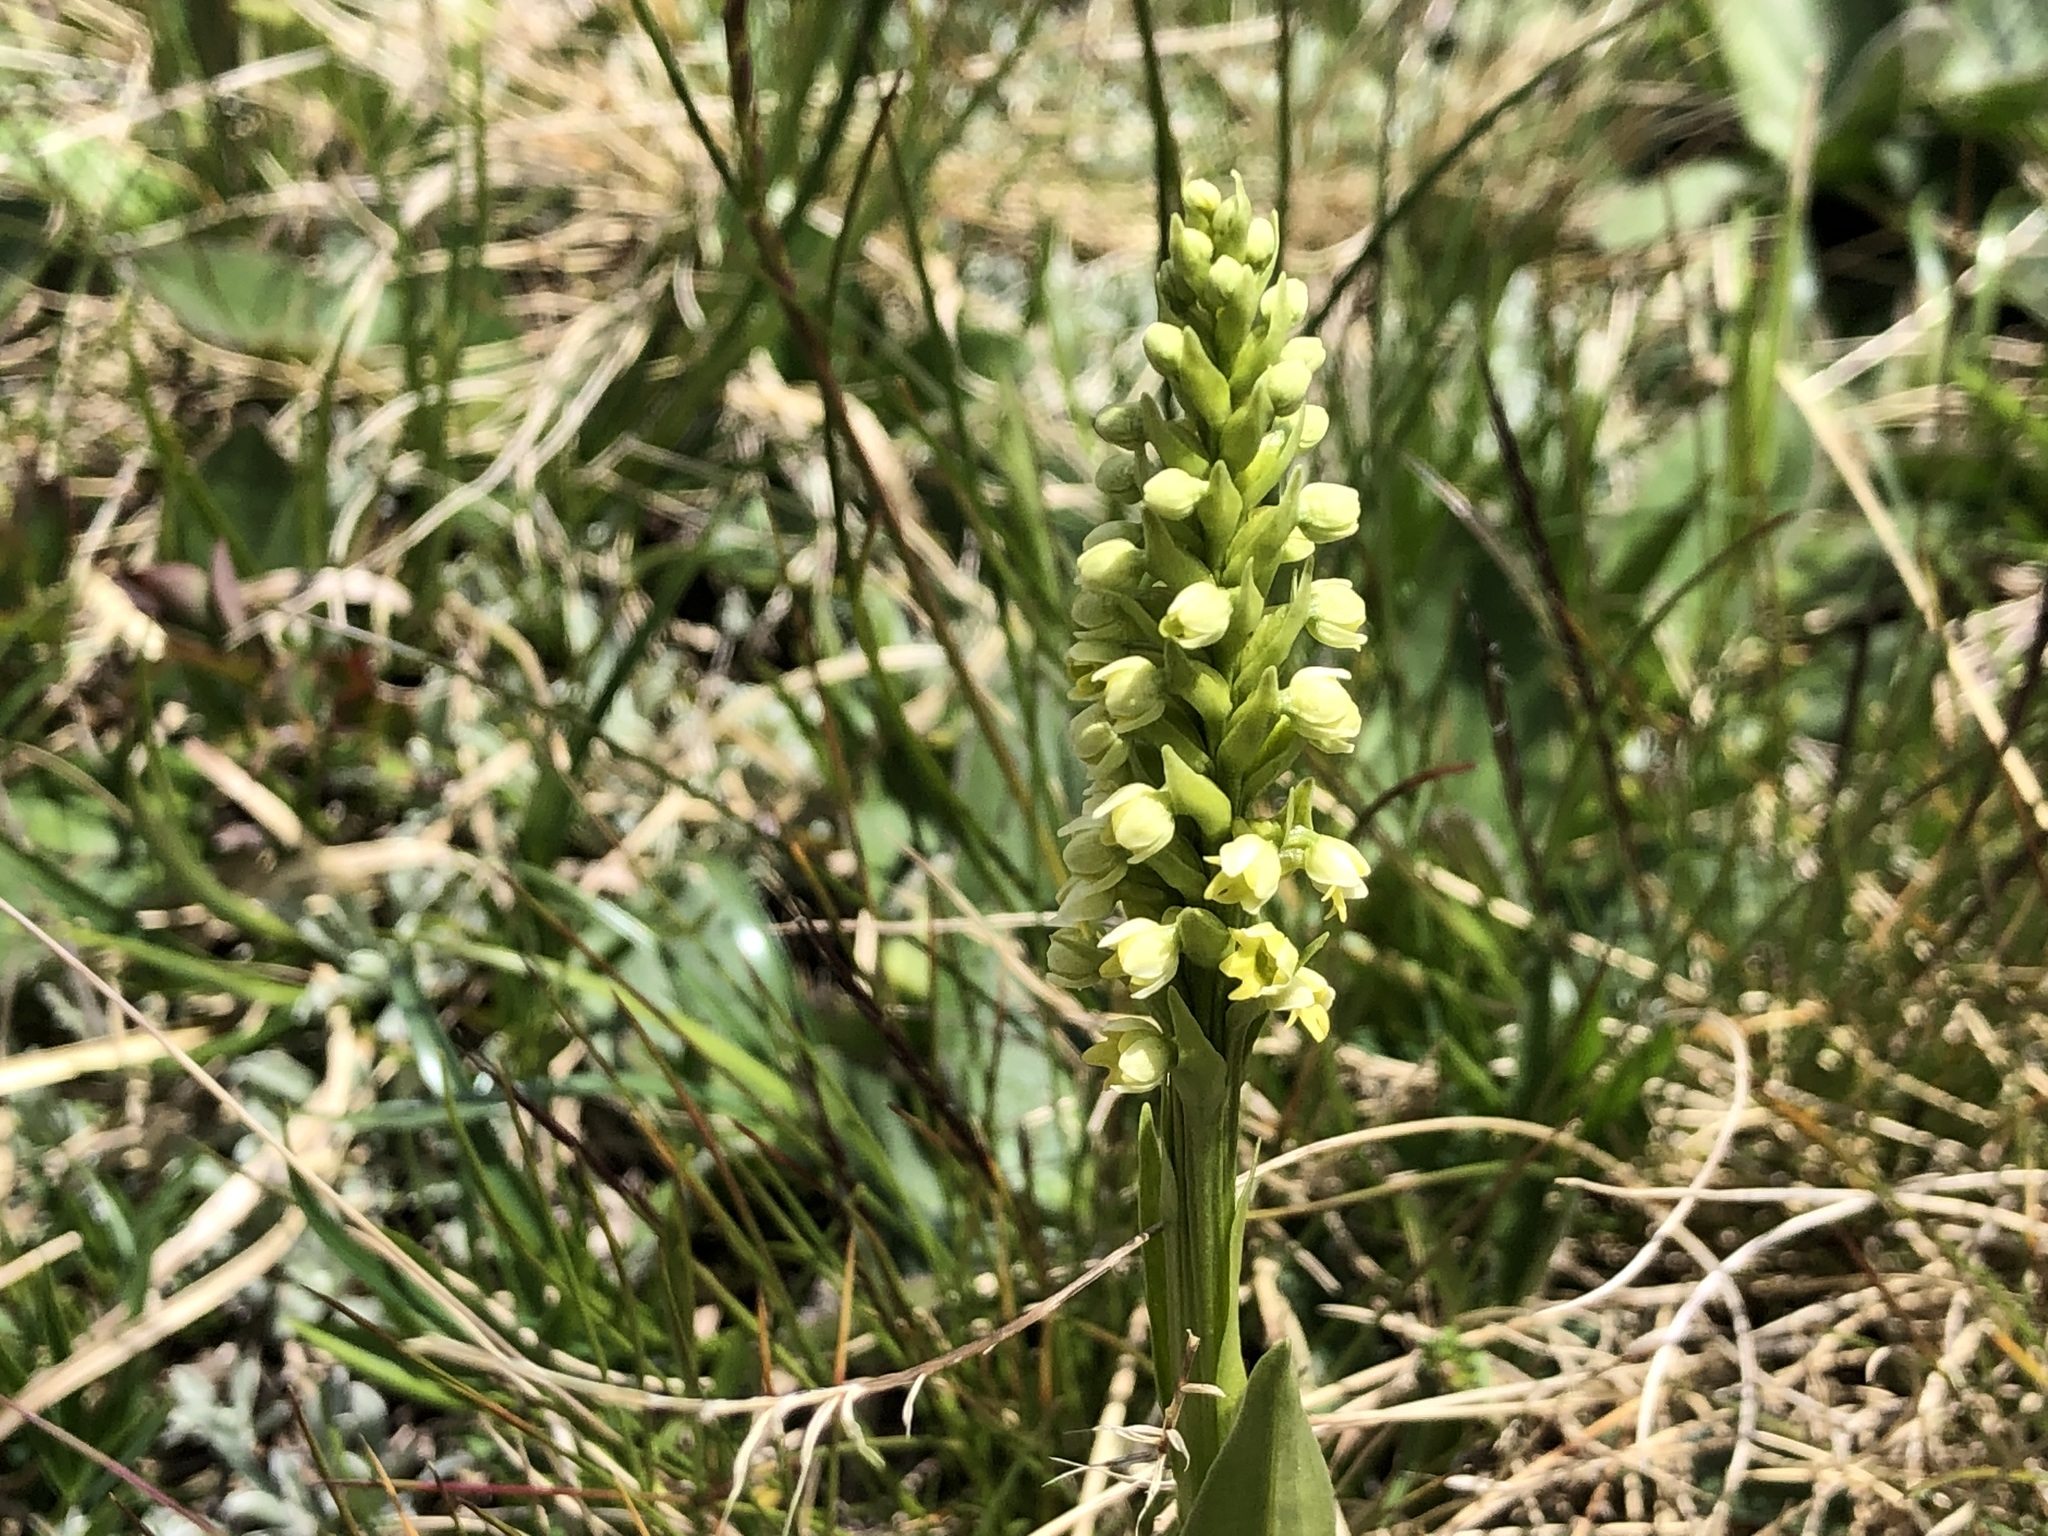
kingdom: Plantae
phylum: Tracheophyta
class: Liliopsida
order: Asparagales
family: Orchidaceae
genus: Pseudorchis
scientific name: Pseudorchis albida
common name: Small-white orchid
